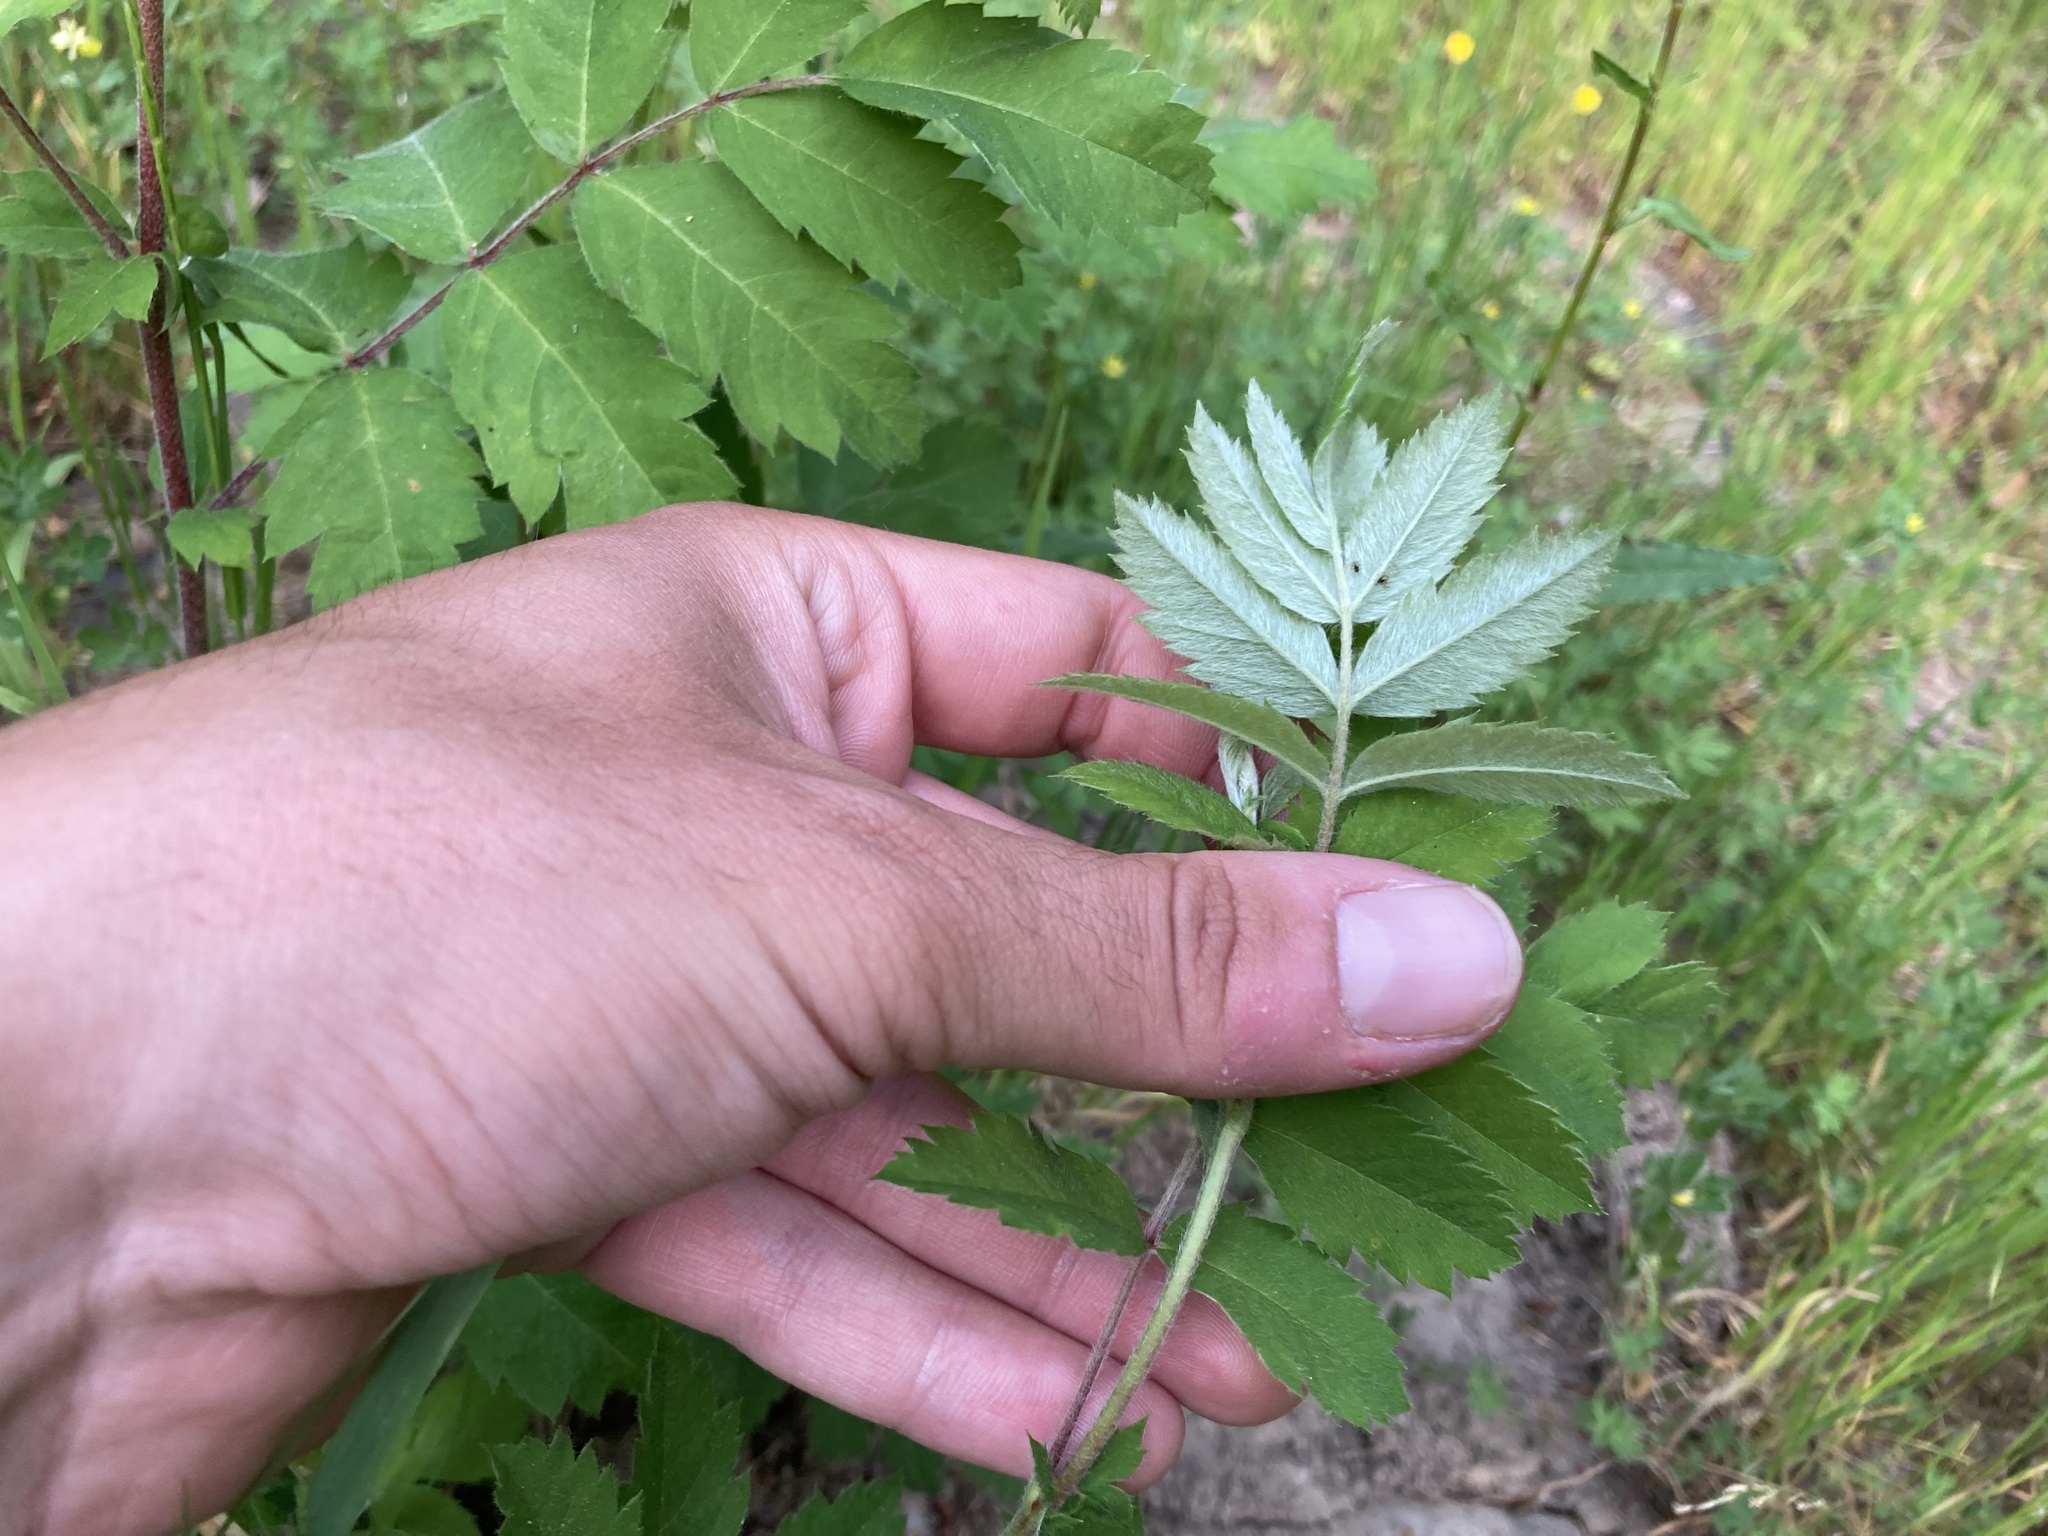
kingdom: Plantae
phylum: Tracheophyta
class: Magnoliopsida
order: Rosales
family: Rosaceae
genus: Cormus
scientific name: Cormus domestica
